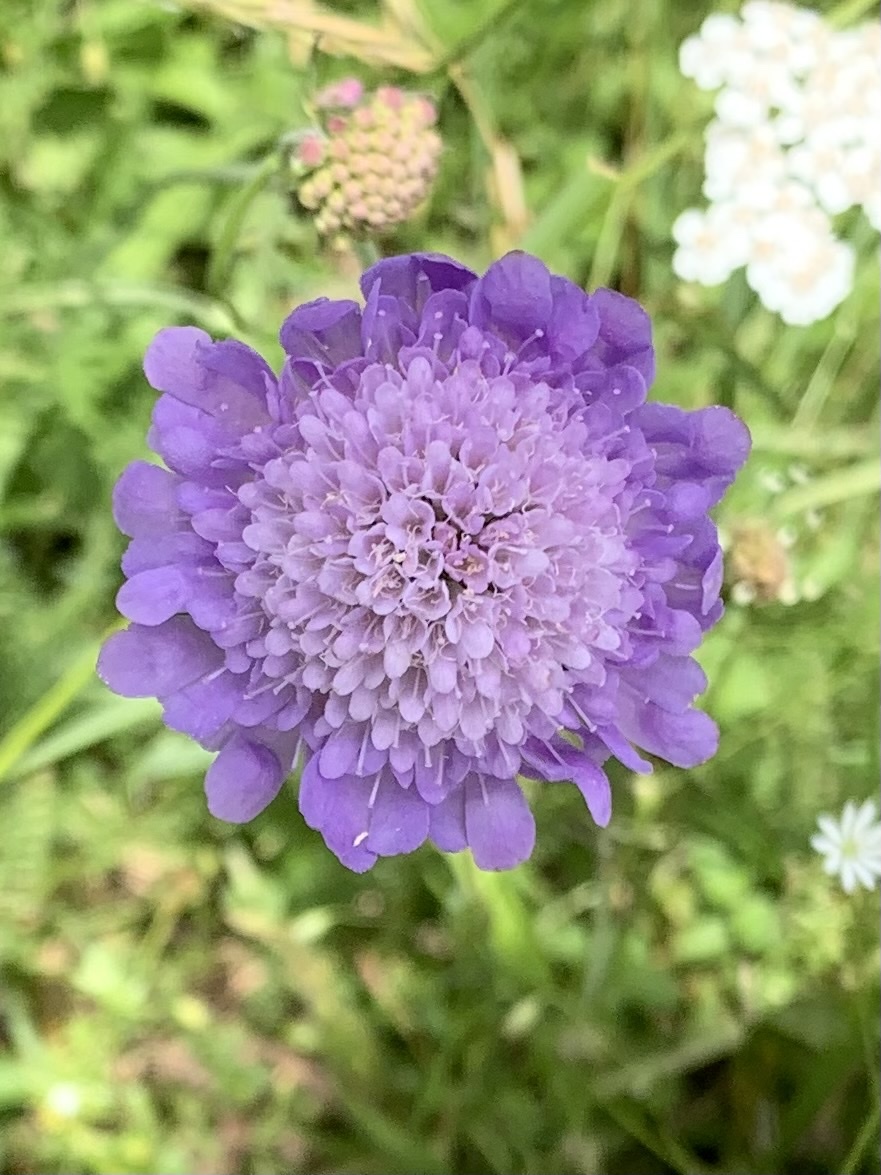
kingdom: Plantae
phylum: Tracheophyta
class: Magnoliopsida
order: Dipsacales
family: Caprifoliaceae
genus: Knautia
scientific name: Knautia arvensis
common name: Field scabiosa
